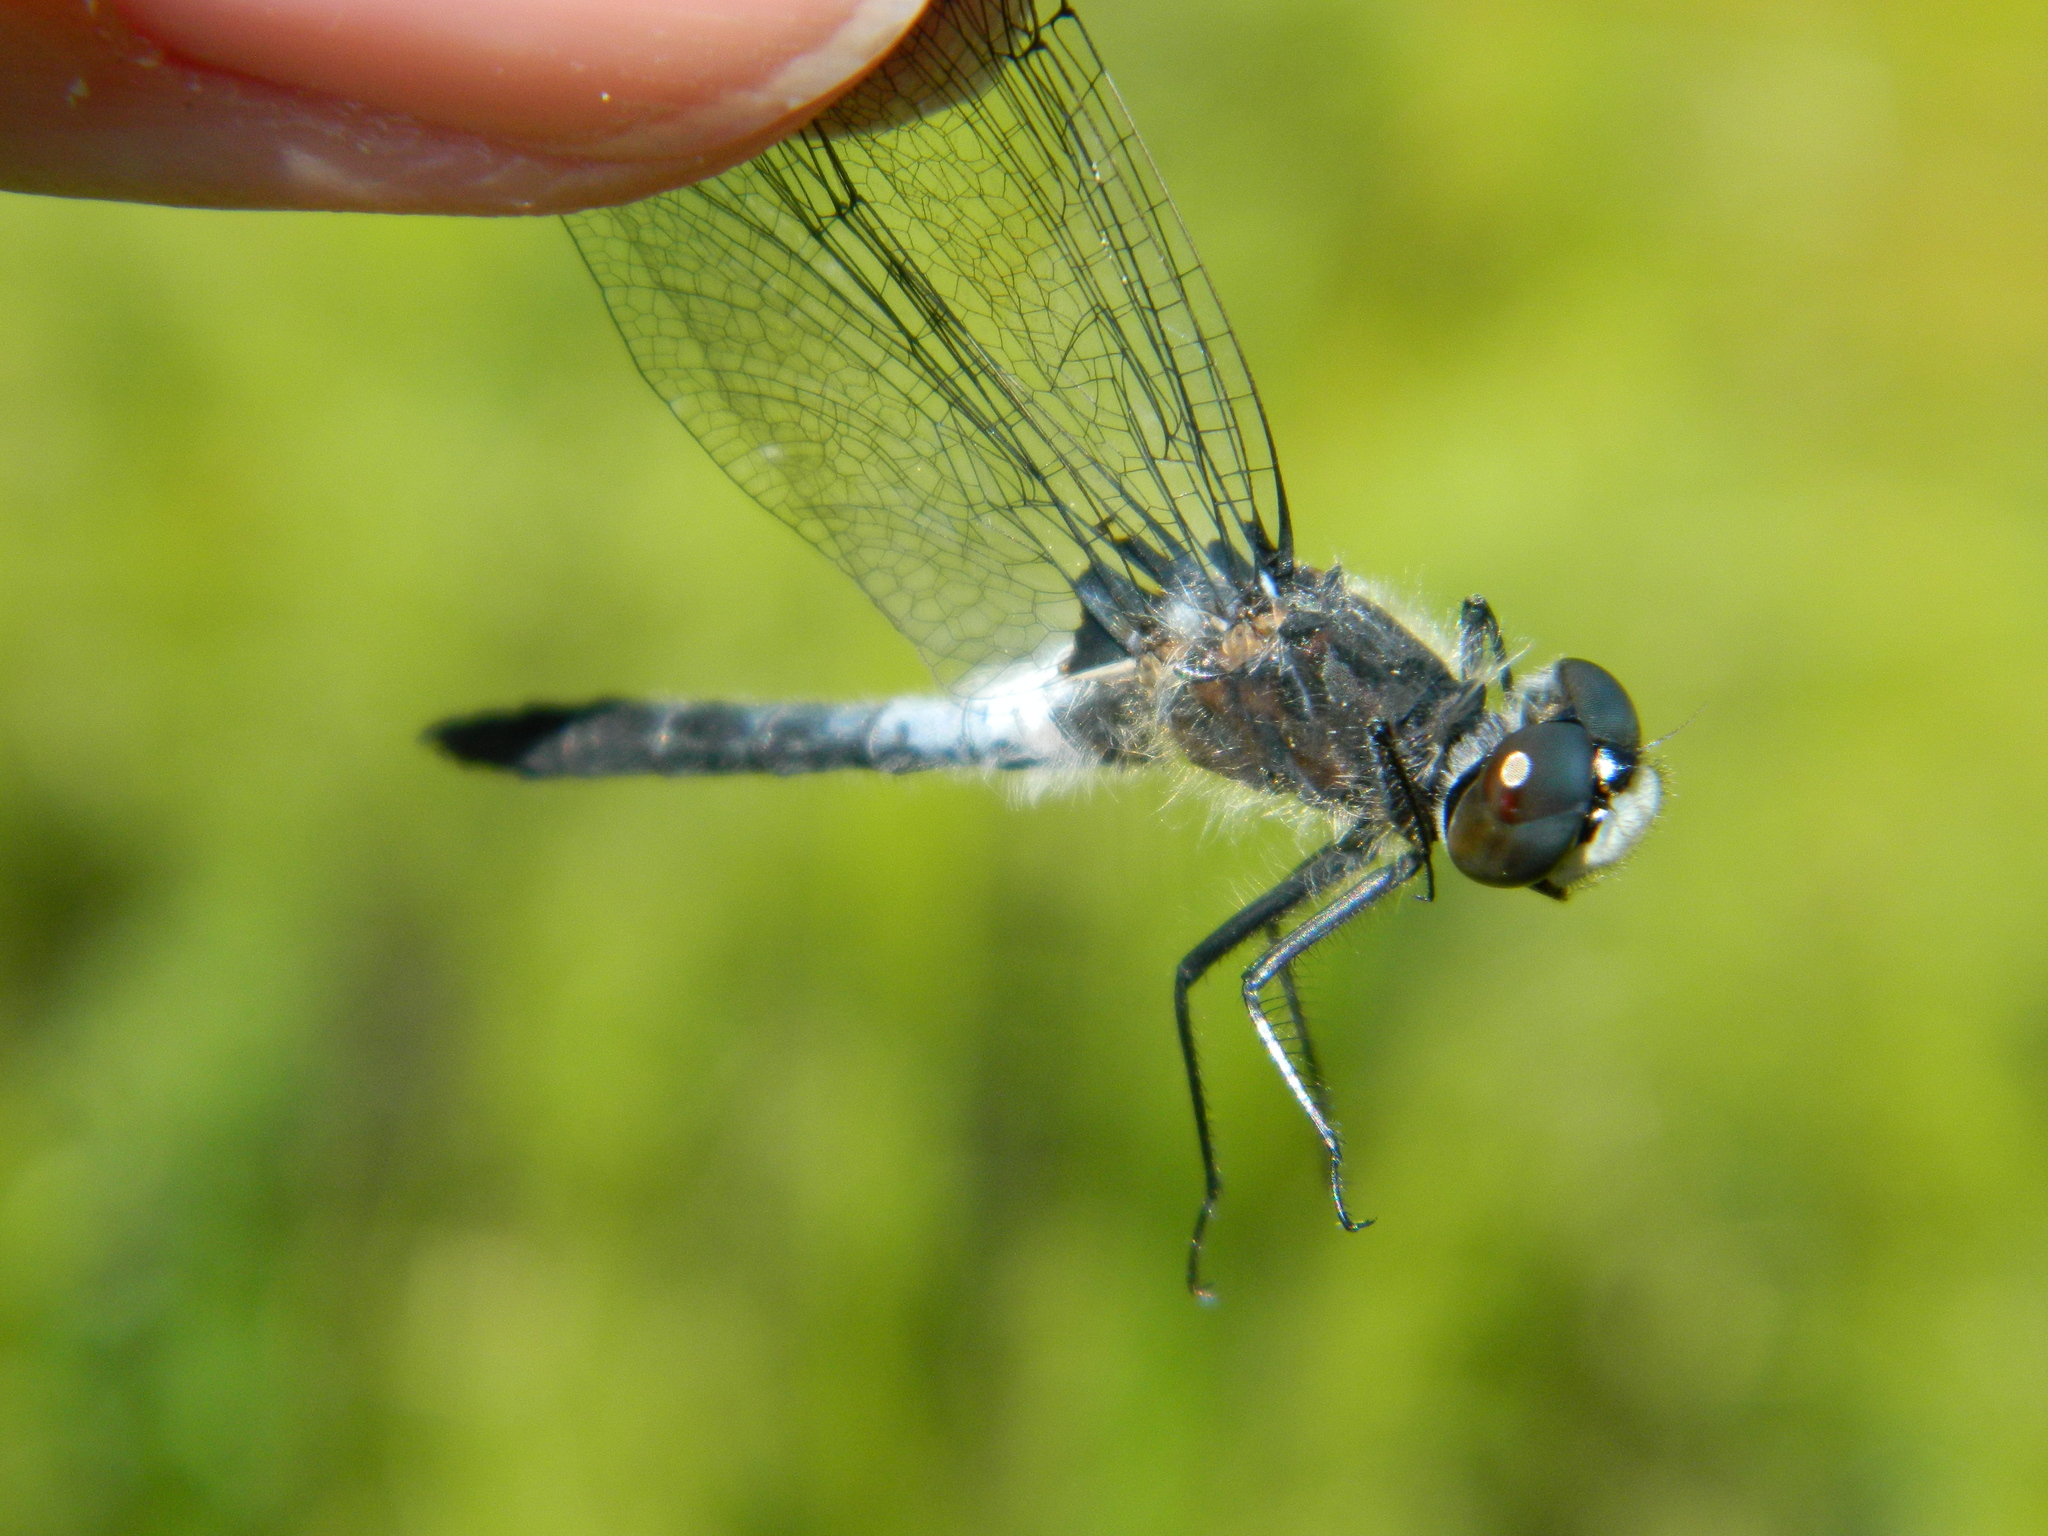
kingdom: Animalia
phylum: Arthropoda
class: Insecta
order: Odonata
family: Libellulidae
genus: Leucorrhinia
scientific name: Leucorrhinia frigida
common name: Frosted whiteface
